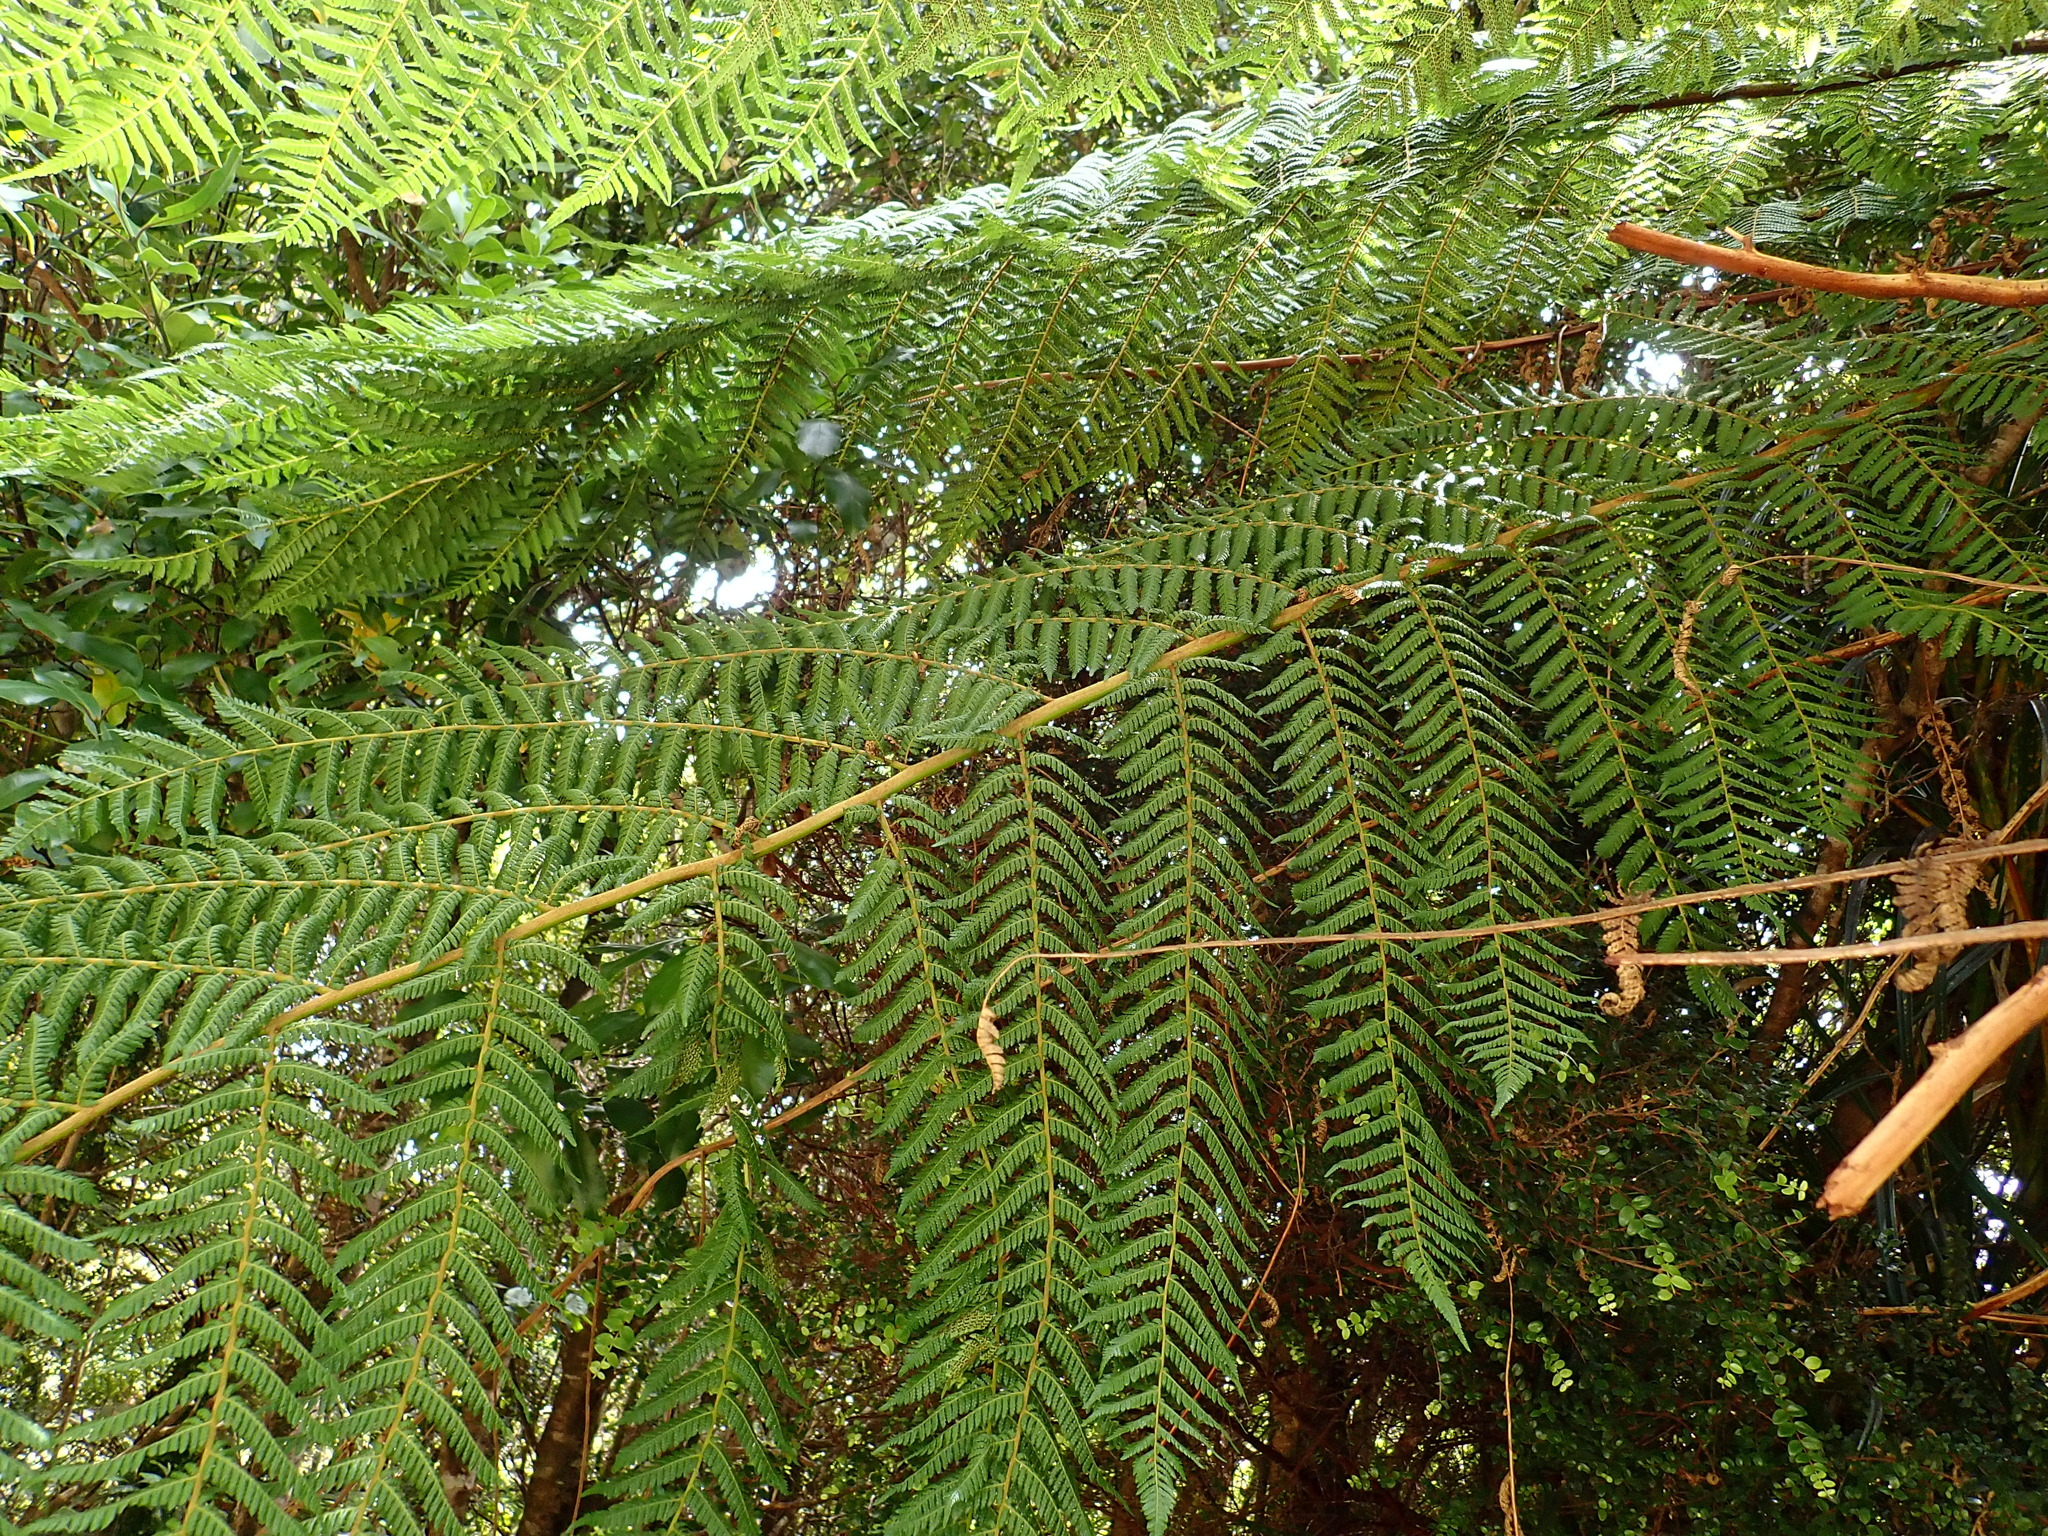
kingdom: Plantae
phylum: Tracheophyta
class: Polypodiopsida
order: Cyatheales
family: Dicksoniaceae
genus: Dicksonia
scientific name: Dicksonia squarrosa
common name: Hard treefern
